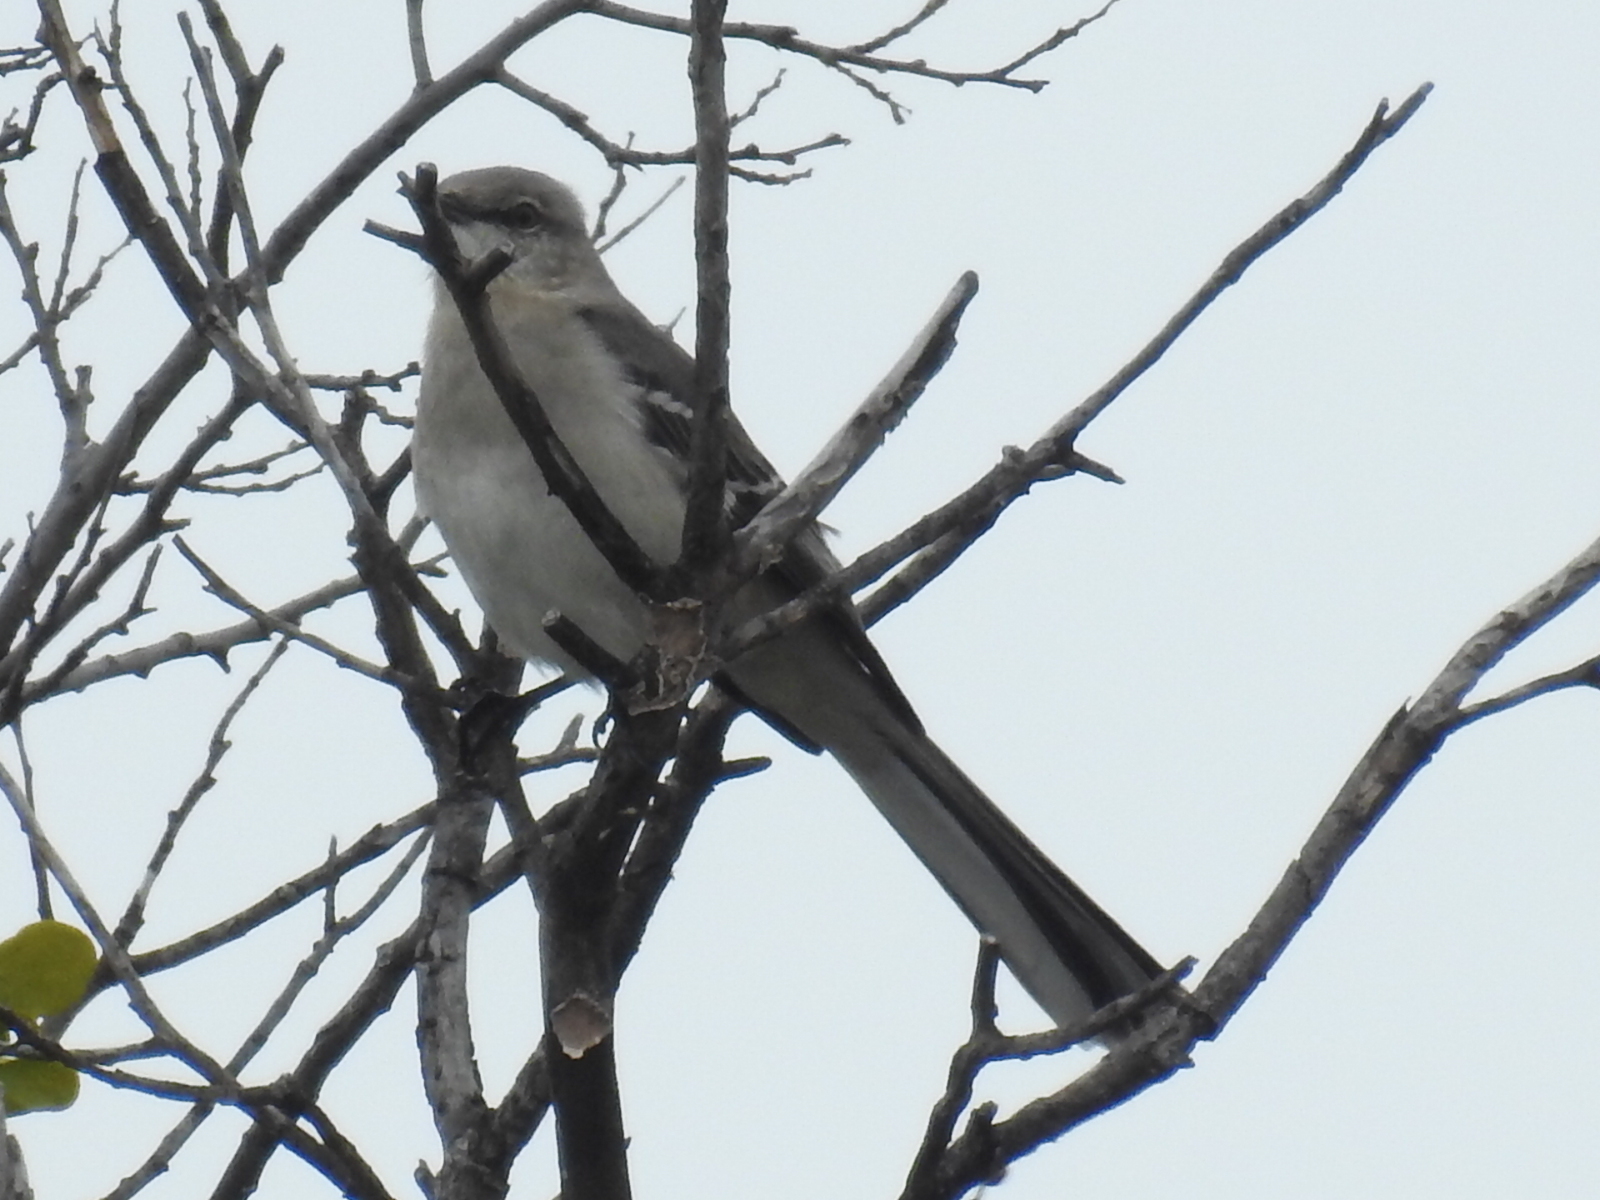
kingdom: Animalia
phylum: Chordata
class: Aves
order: Passeriformes
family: Mimidae
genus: Mimus
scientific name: Mimus polyglottos
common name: Northern mockingbird
